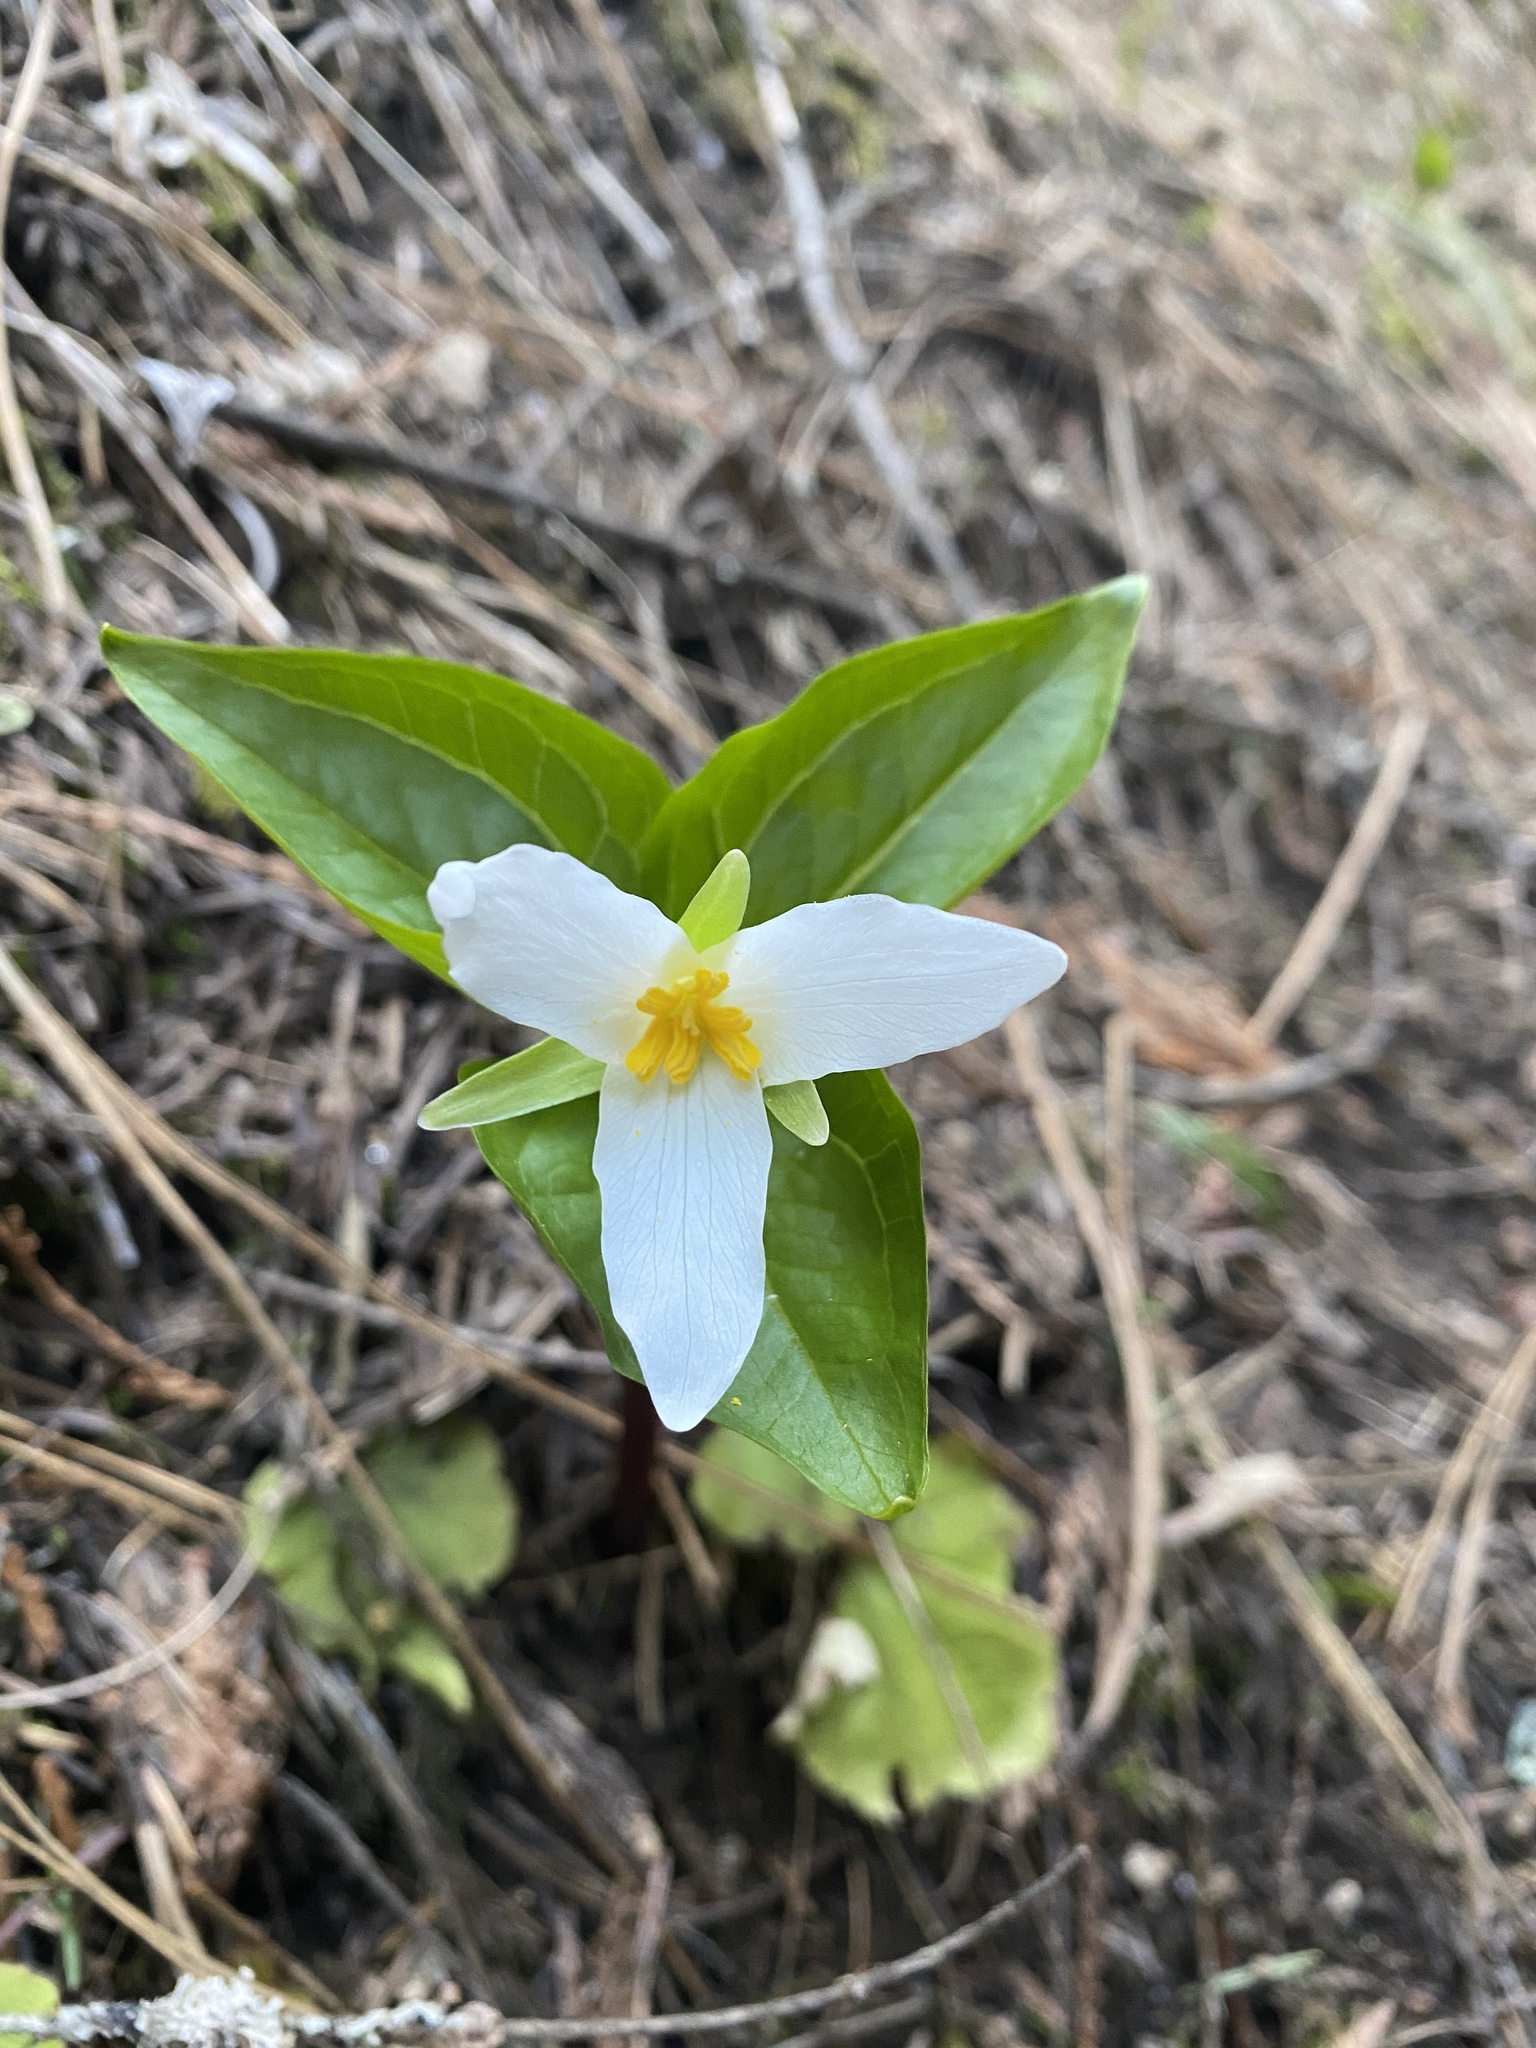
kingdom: Plantae
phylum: Tracheophyta
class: Liliopsida
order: Liliales
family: Melanthiaceae
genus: Trillium
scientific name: Trillium ovatum
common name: Pacific trillium
